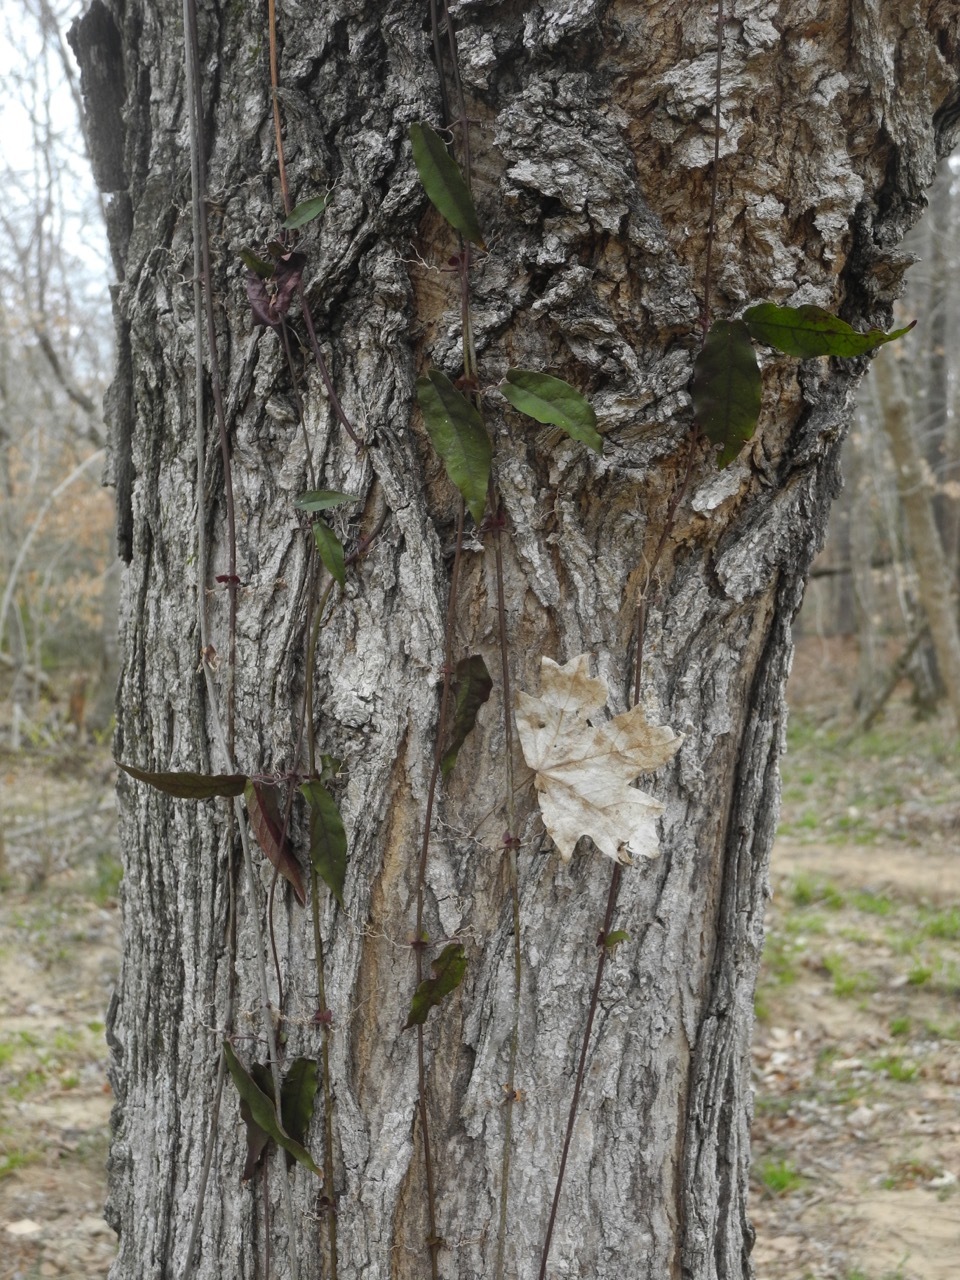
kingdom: Plantae
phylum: Tracheophyta
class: Magnoliopsida
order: Sapindales
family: Sapindaceae
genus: Acer
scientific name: Acer floridanum
